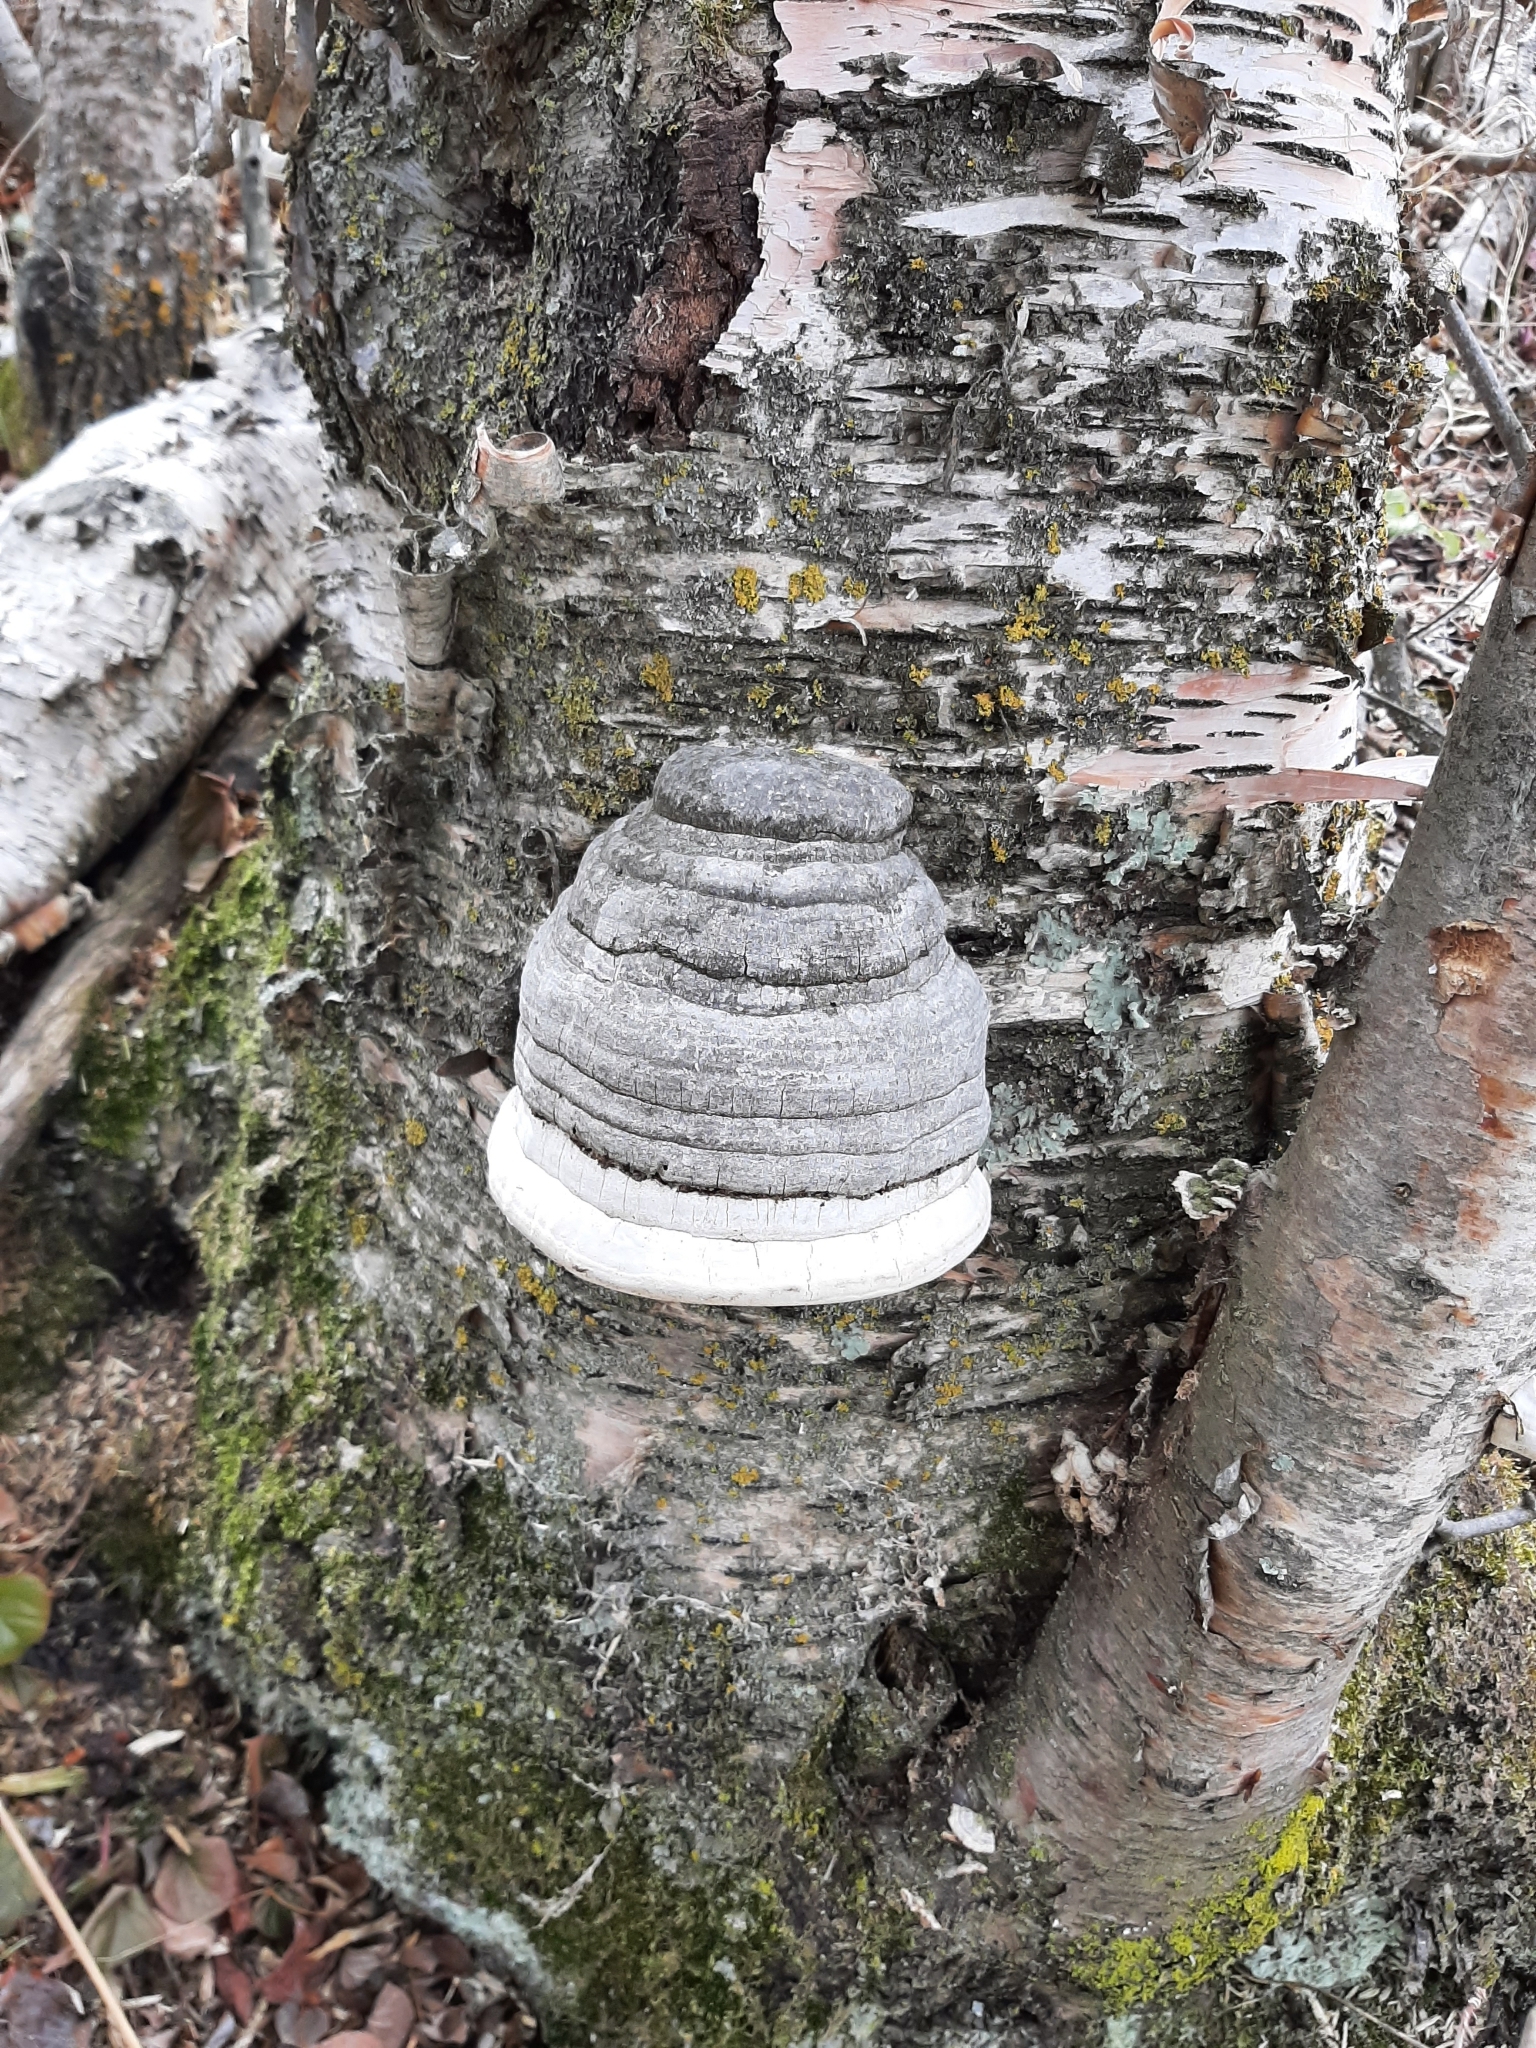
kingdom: Fungi
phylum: Basidiomycota
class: Agaricomycetes
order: Polyporales
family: Polyporaceae
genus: Fomes
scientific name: Fomes fomentarius
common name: Hoof fungus
